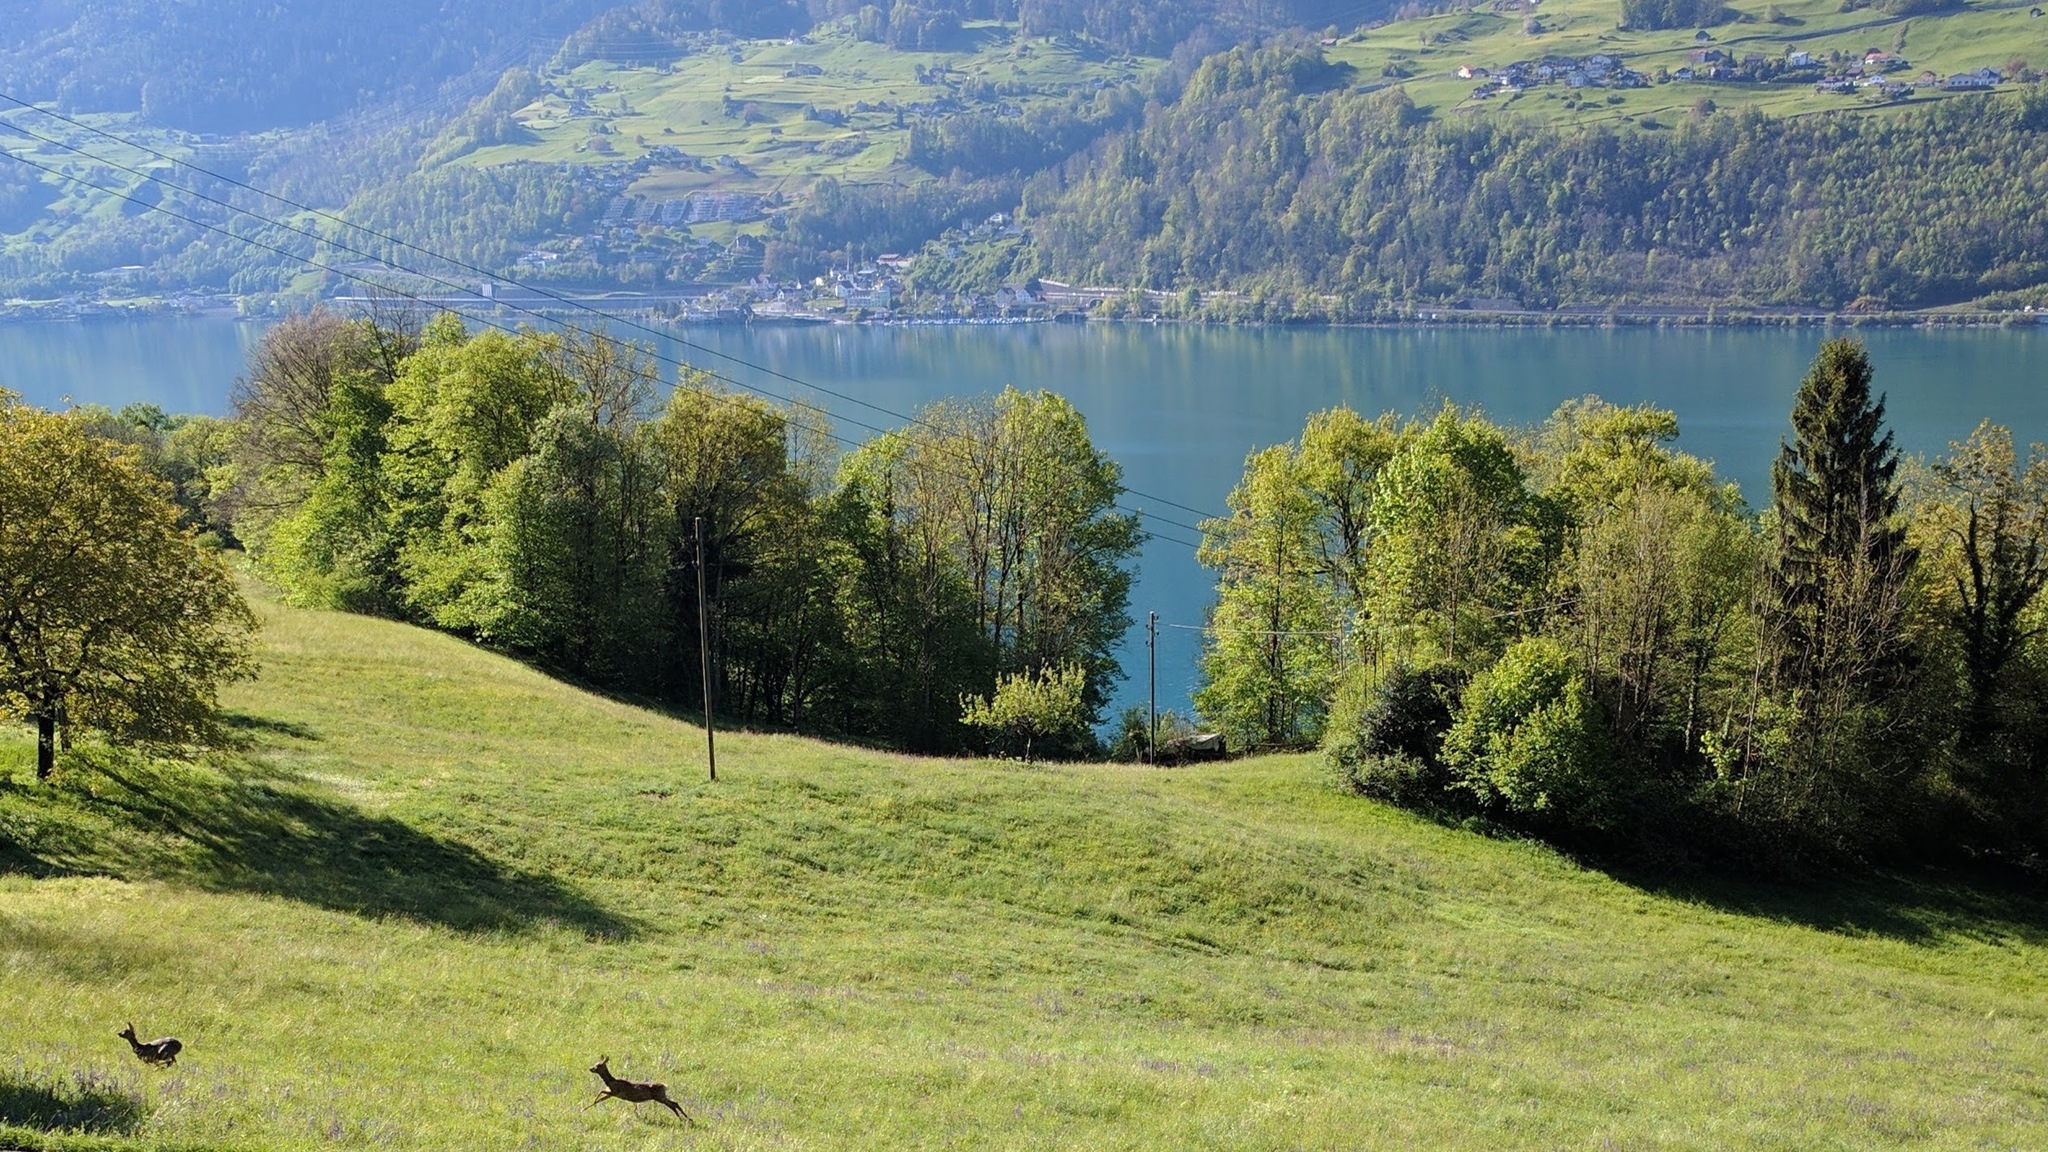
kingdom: Animalia
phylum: Chordata
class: Mammalia
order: Artiodactyla
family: Cervidae
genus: Capreolus
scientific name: Capreolus capreolus
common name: Western roe deer
